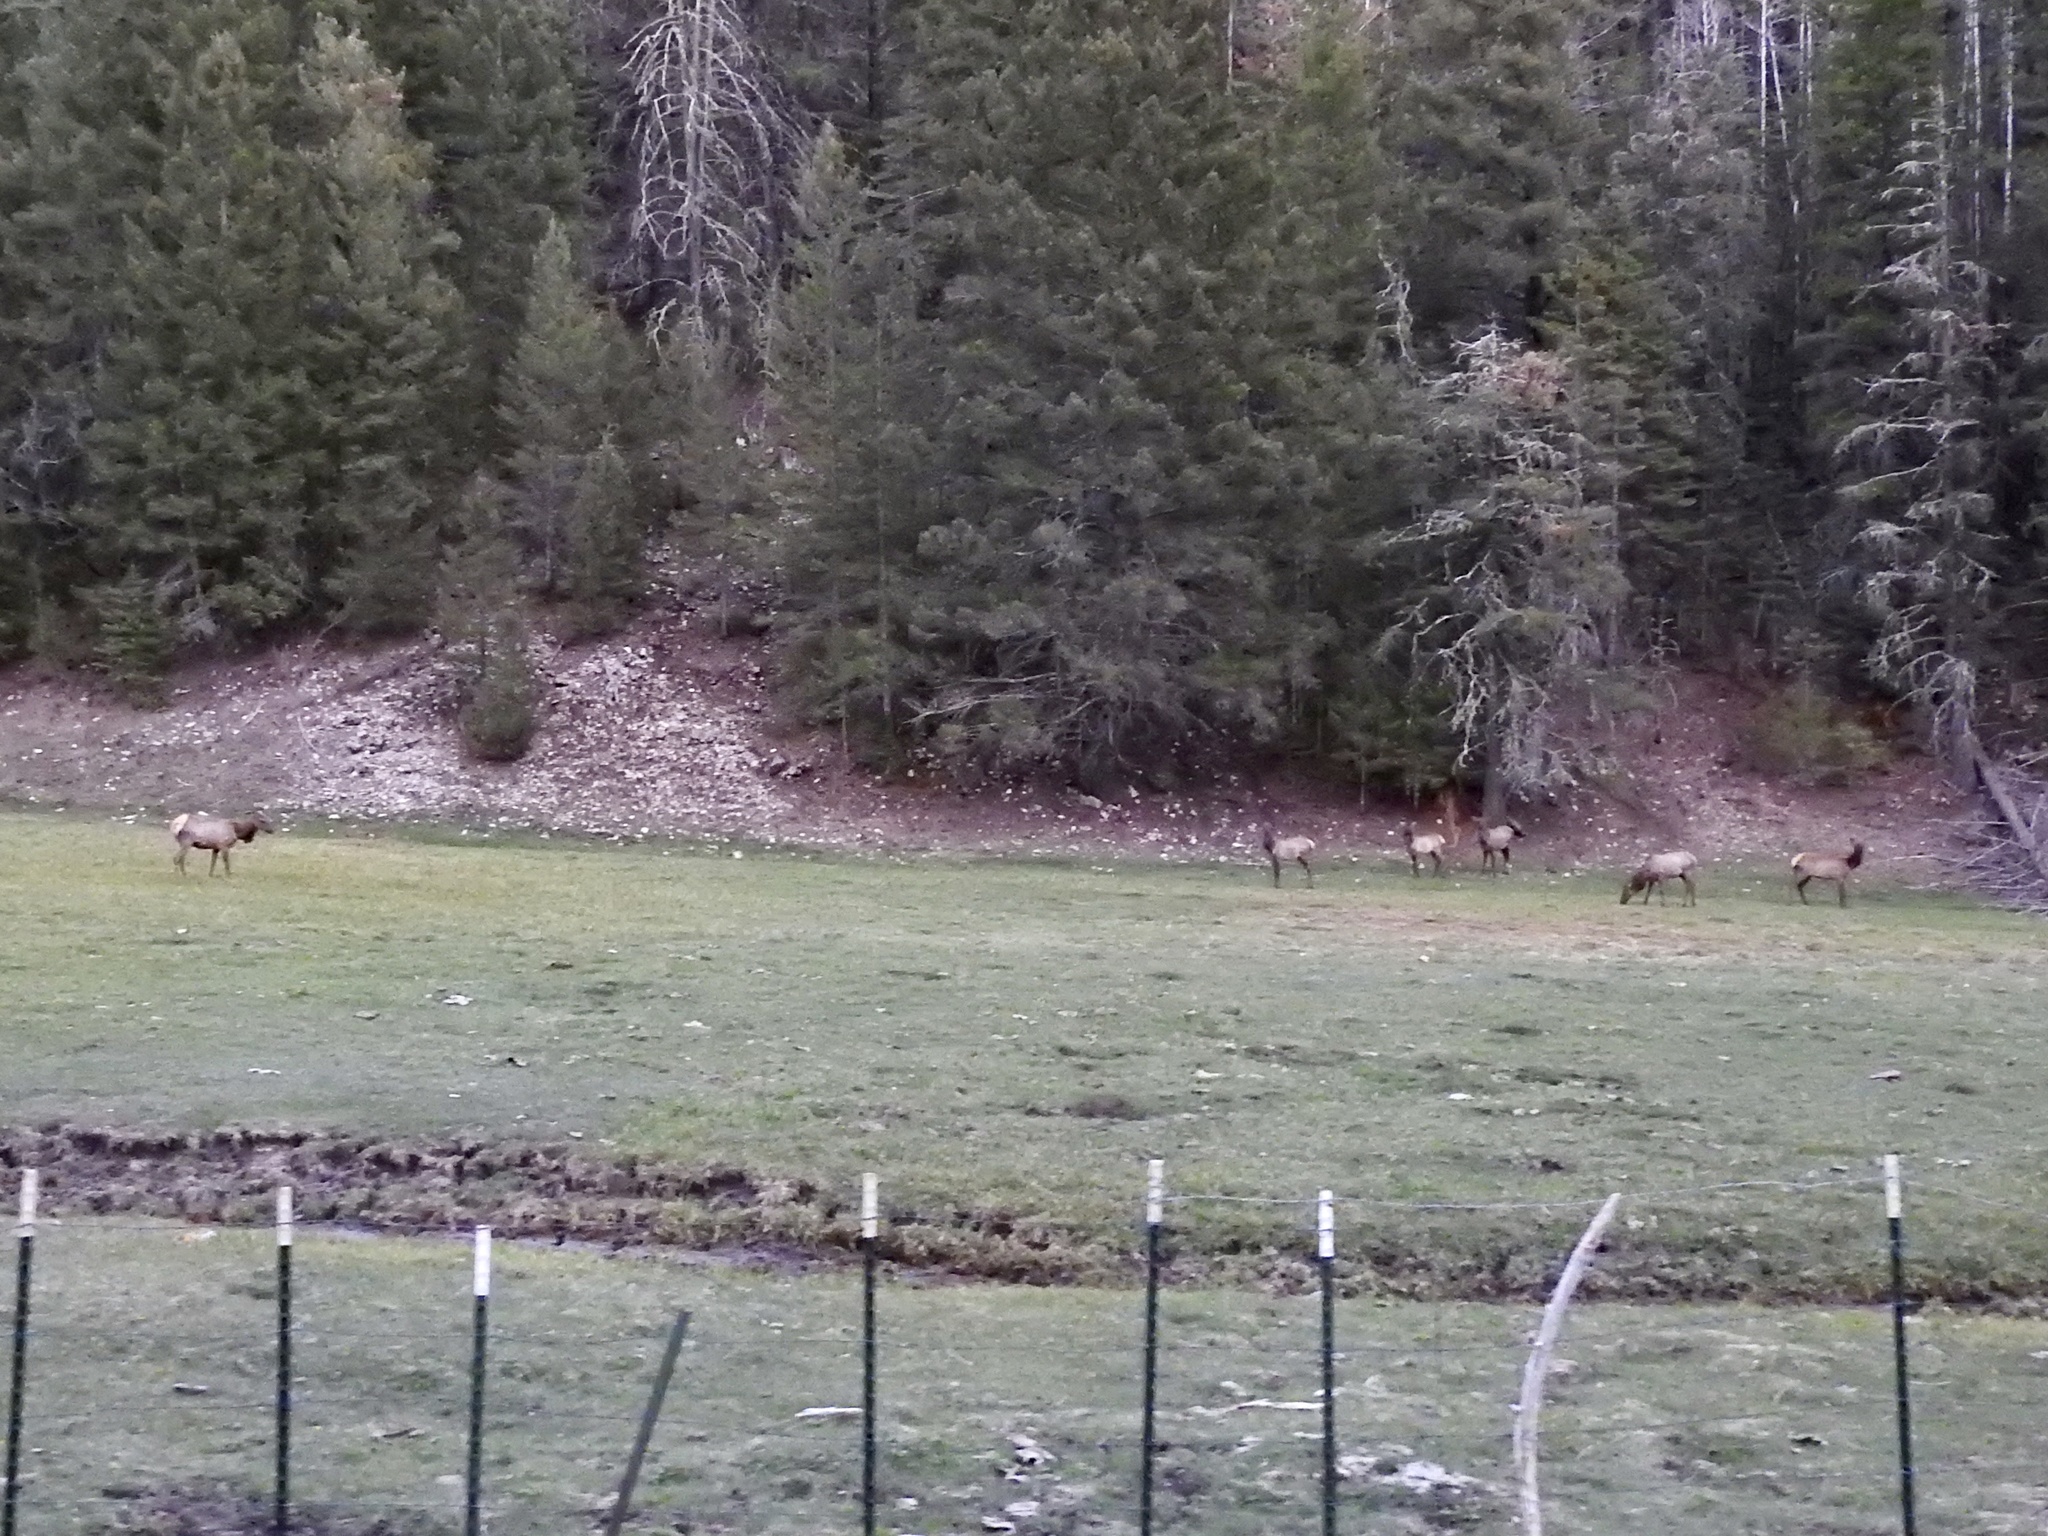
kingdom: Animalia
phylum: Chordata
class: Mammalia
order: Artiodactyla
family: Cervidae
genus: Cervus
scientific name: Cervus elaphus
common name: Red deer
